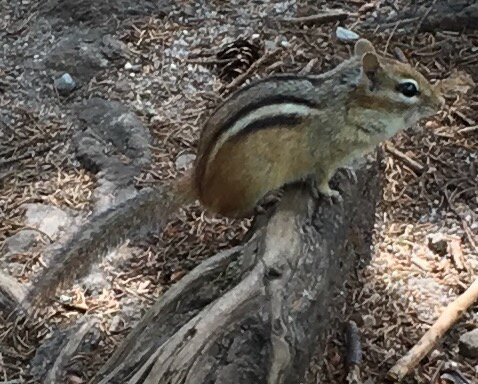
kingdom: Animalia
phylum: Chordata
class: Mammalia
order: Rodentia
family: Sciuridae
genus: Tamias
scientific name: Tamias striatus
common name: Eastern chipmunk
